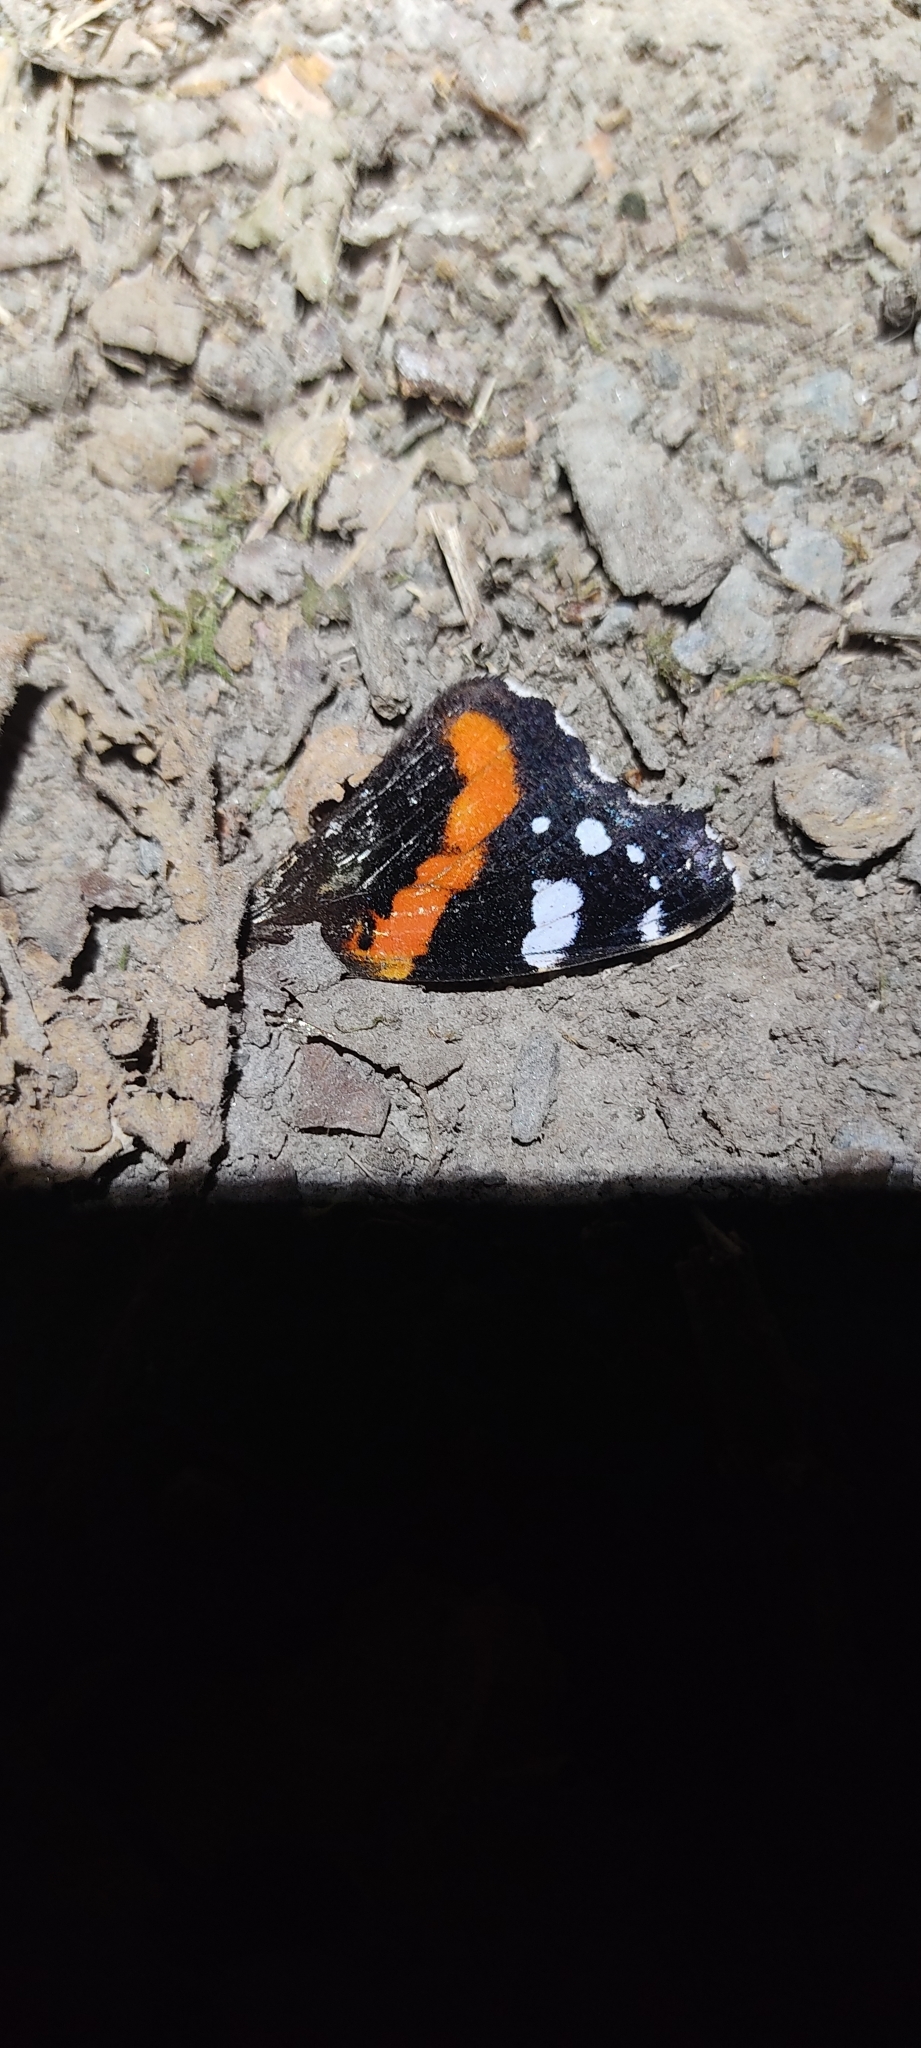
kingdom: Animalia
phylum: Arthropoda
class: Insecta
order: Lepidoptera
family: Nymphalidae
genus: Vanessa
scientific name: Vanessa atalanta
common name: Red admiral
